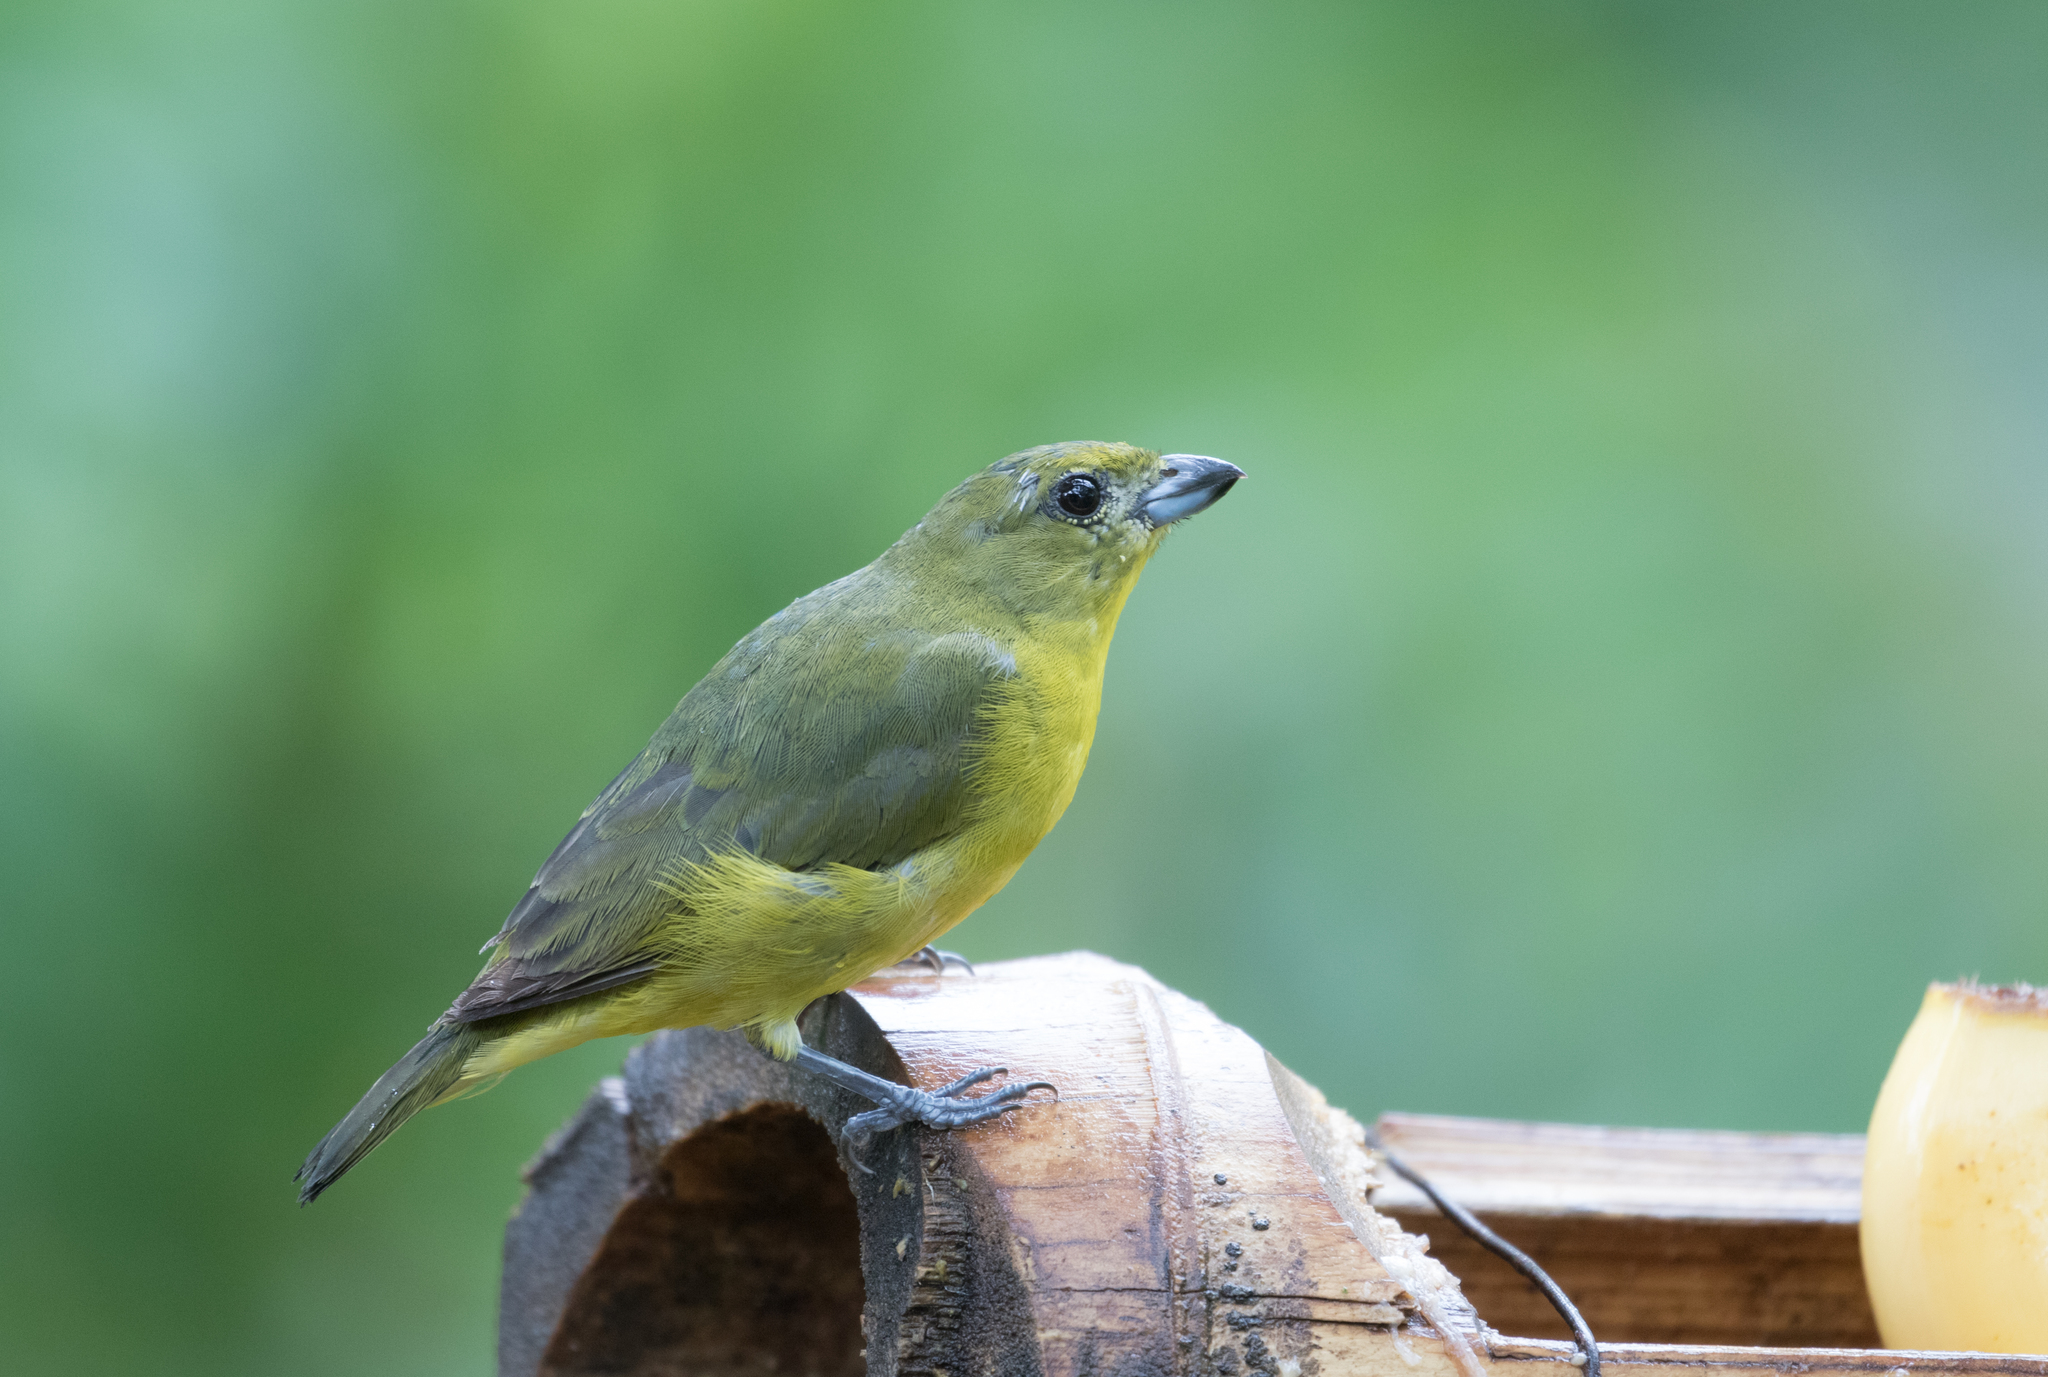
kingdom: Animalia
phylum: Chordata
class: Aves
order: Passeriformes
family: Fringillidae
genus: Euphonia
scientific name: Euphonia laniirostris
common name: Thick-billed euphonia
